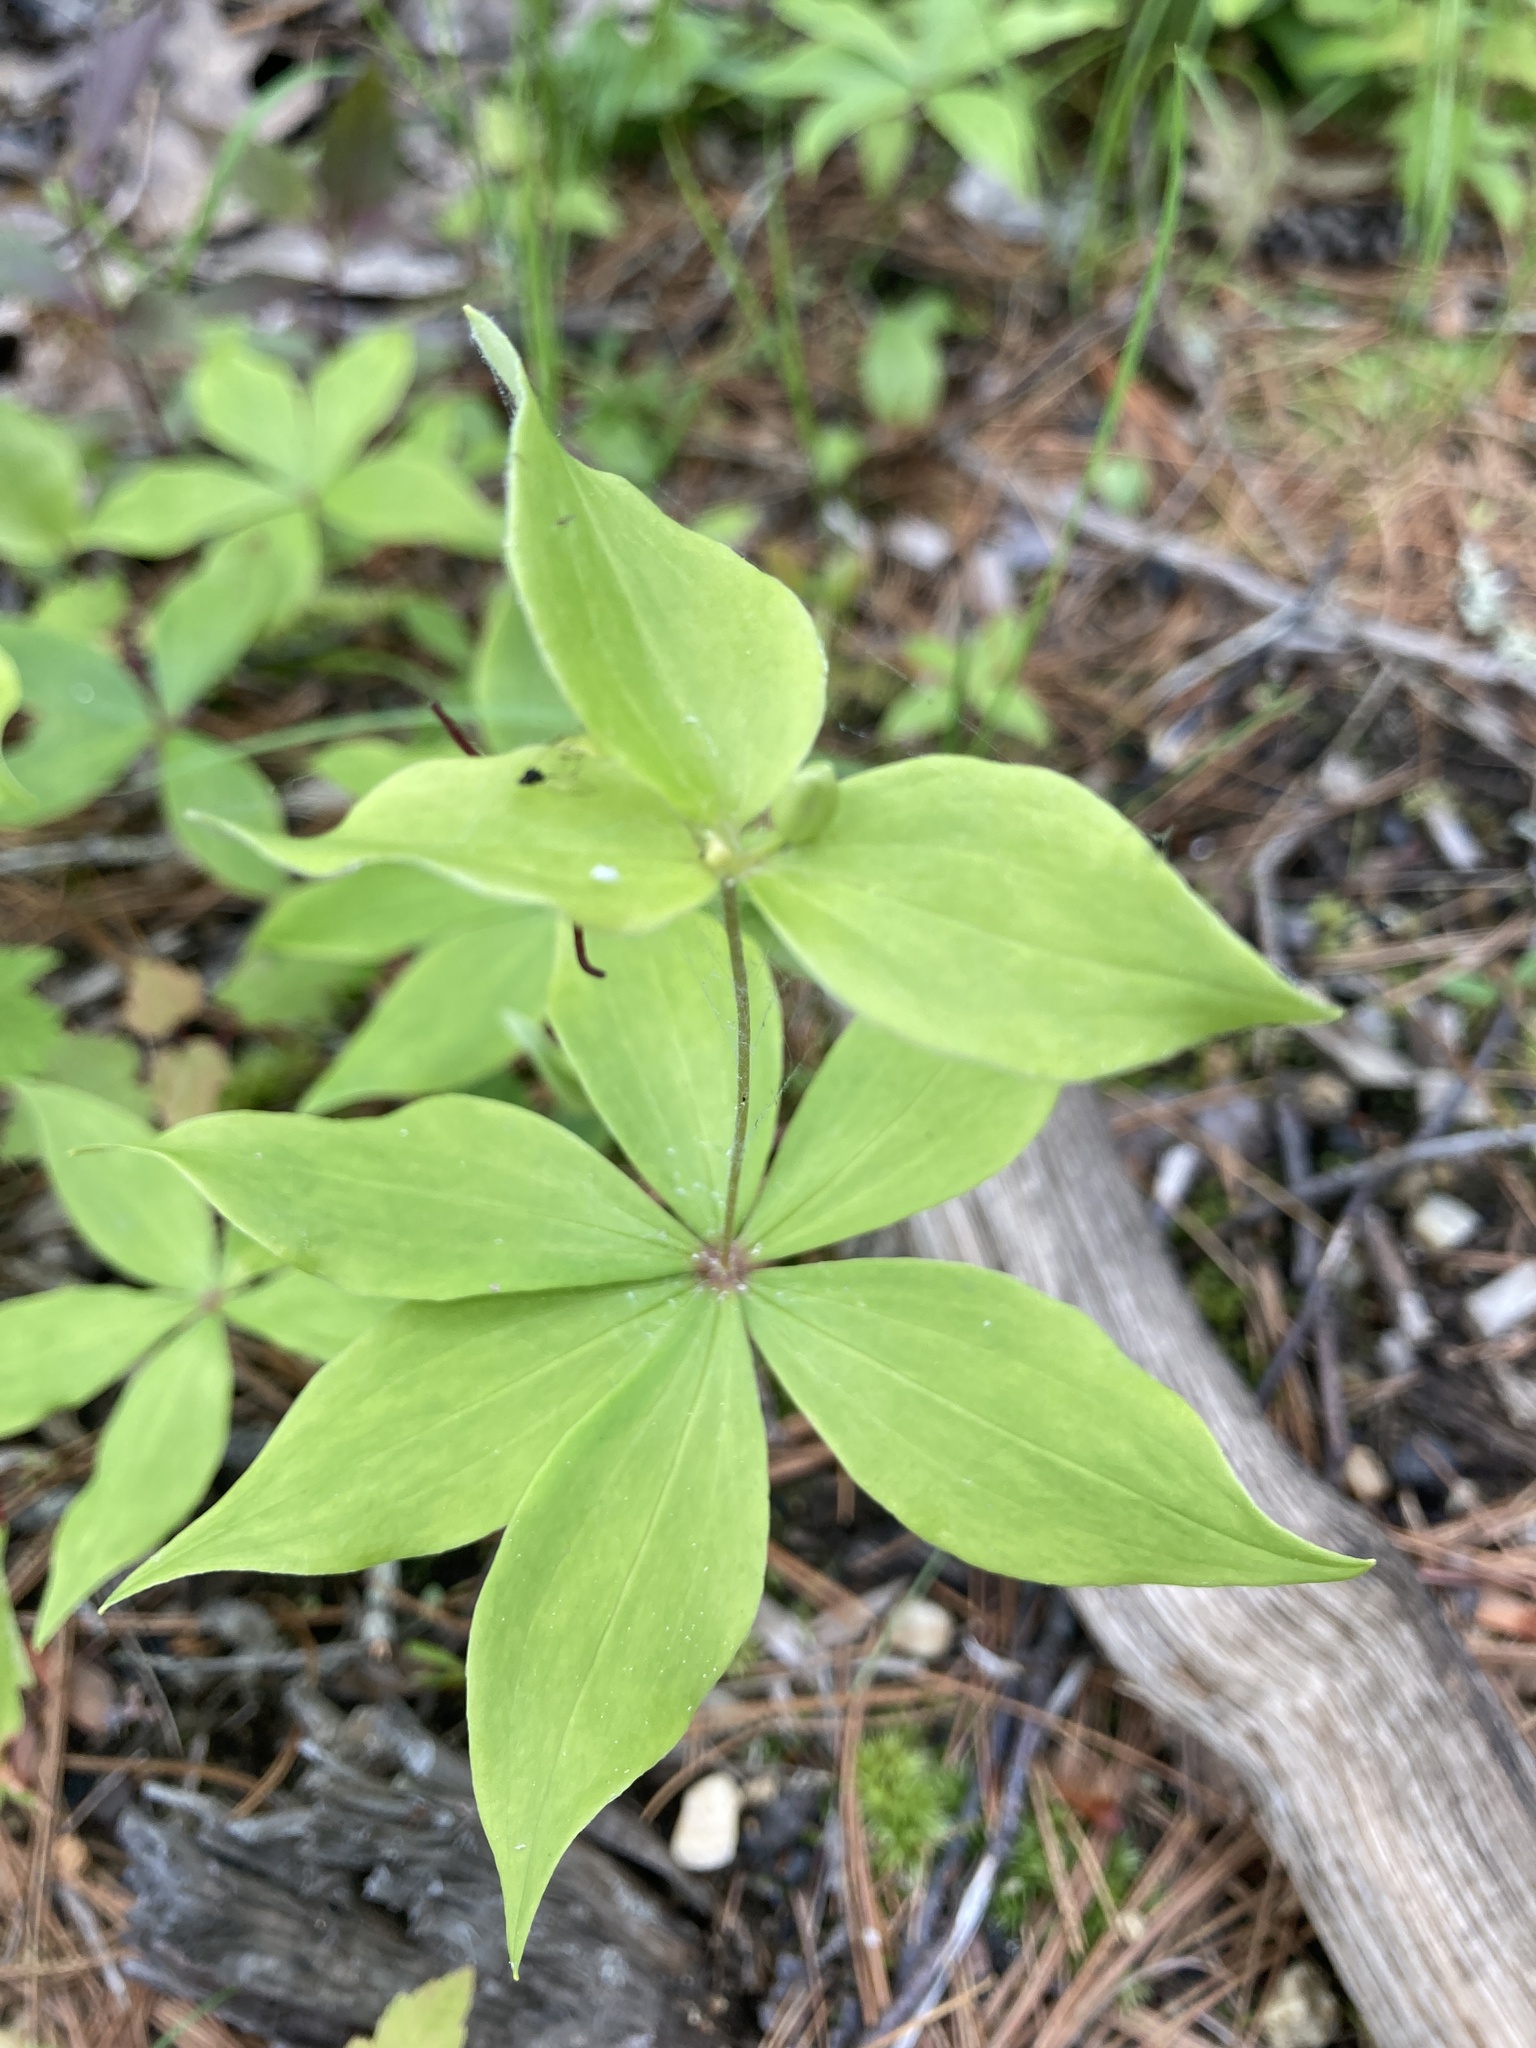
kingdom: Plantae
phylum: Tracheophyta
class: Liliopsida
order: Liliales
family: Liliaceae
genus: Medeola
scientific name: Medeola virginiana
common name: Indian cucumber-root
